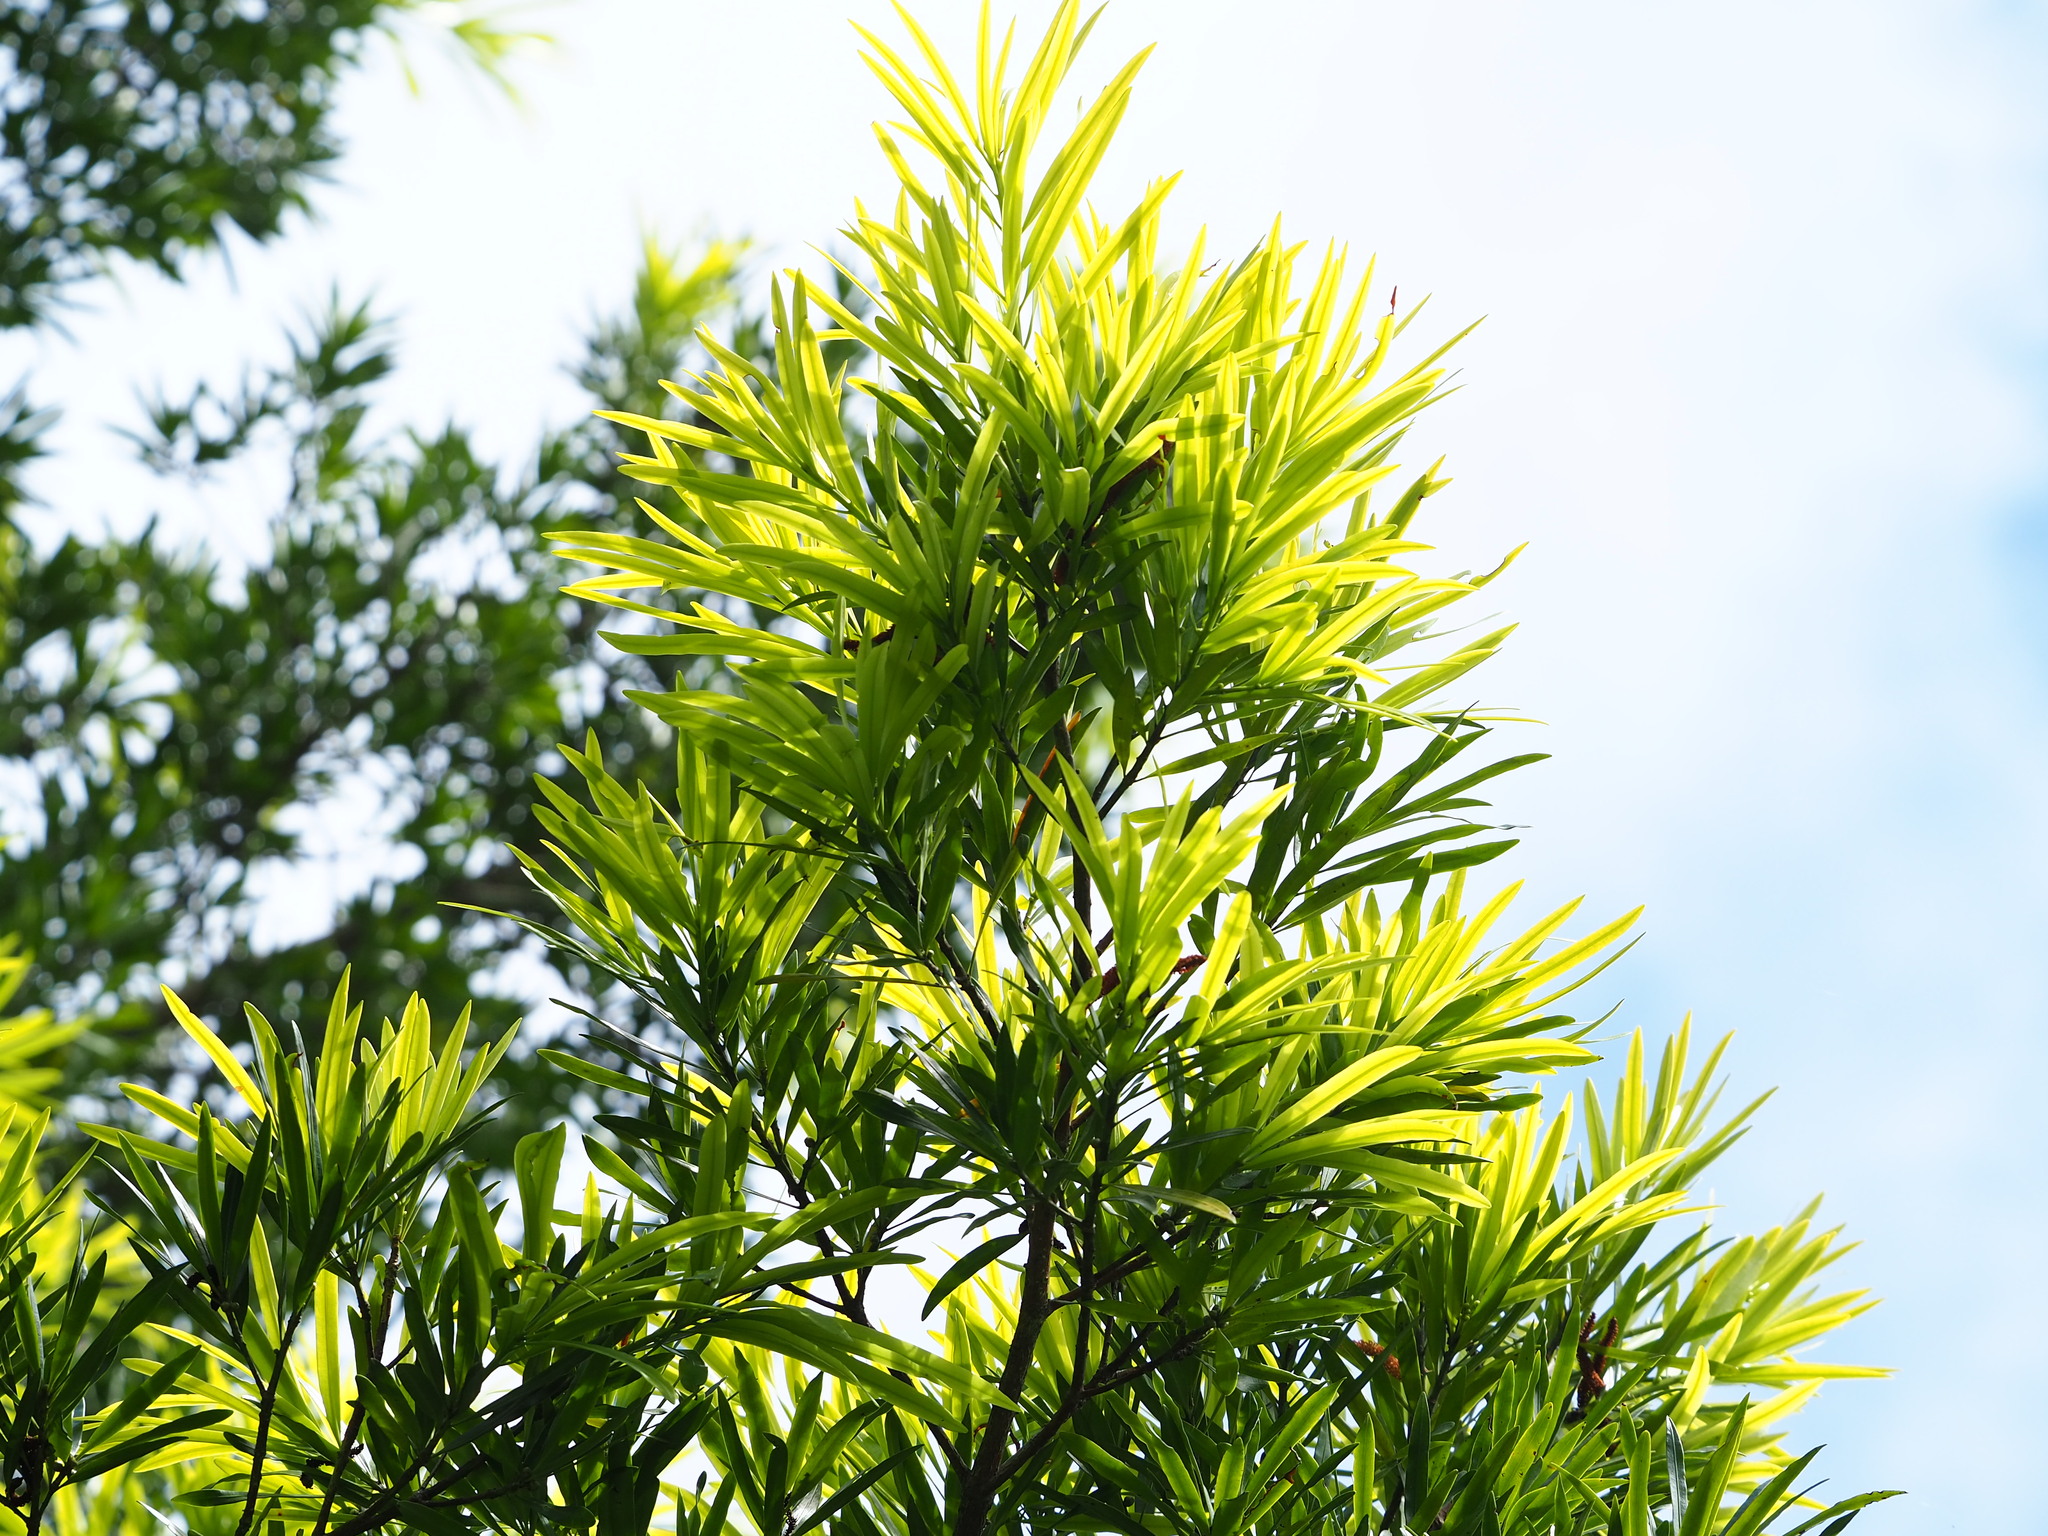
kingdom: Plantae
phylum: Tracheophyta
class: Pinopsida
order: Pinales
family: Podocarpaceae
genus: Podocarpus
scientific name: Podocarpus nakaii
